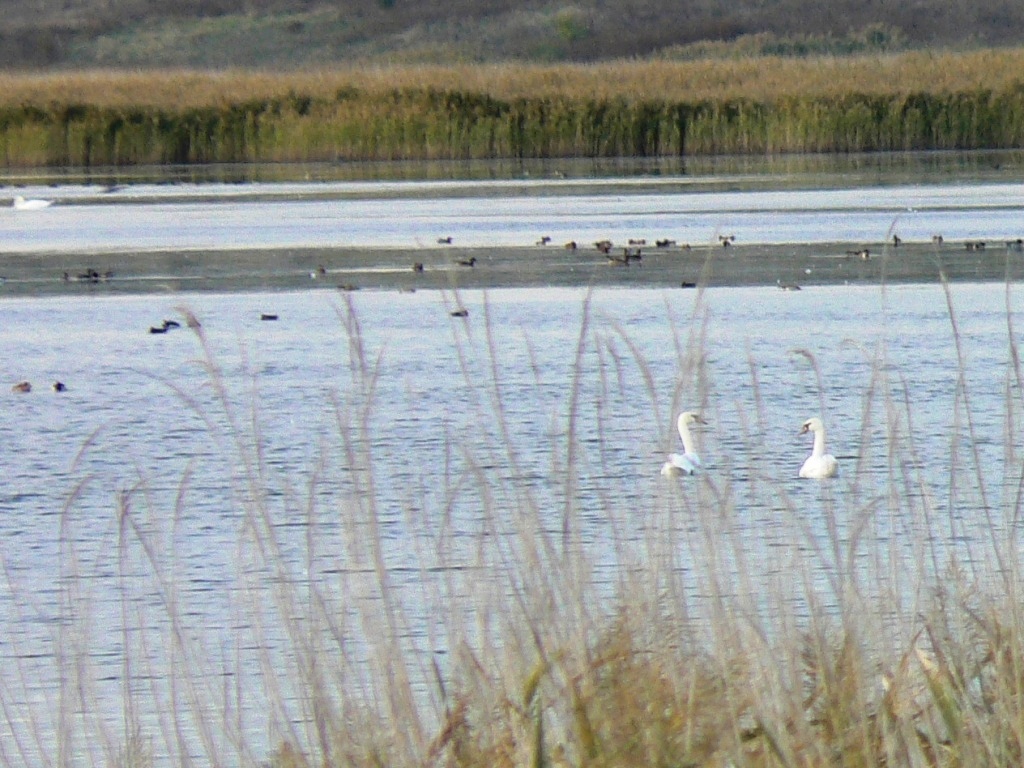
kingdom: Animalia
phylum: Chordata
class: Aves
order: Anseriformes
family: Anatidae
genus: Cygnus
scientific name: Cygnus olor
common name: Mute swan
